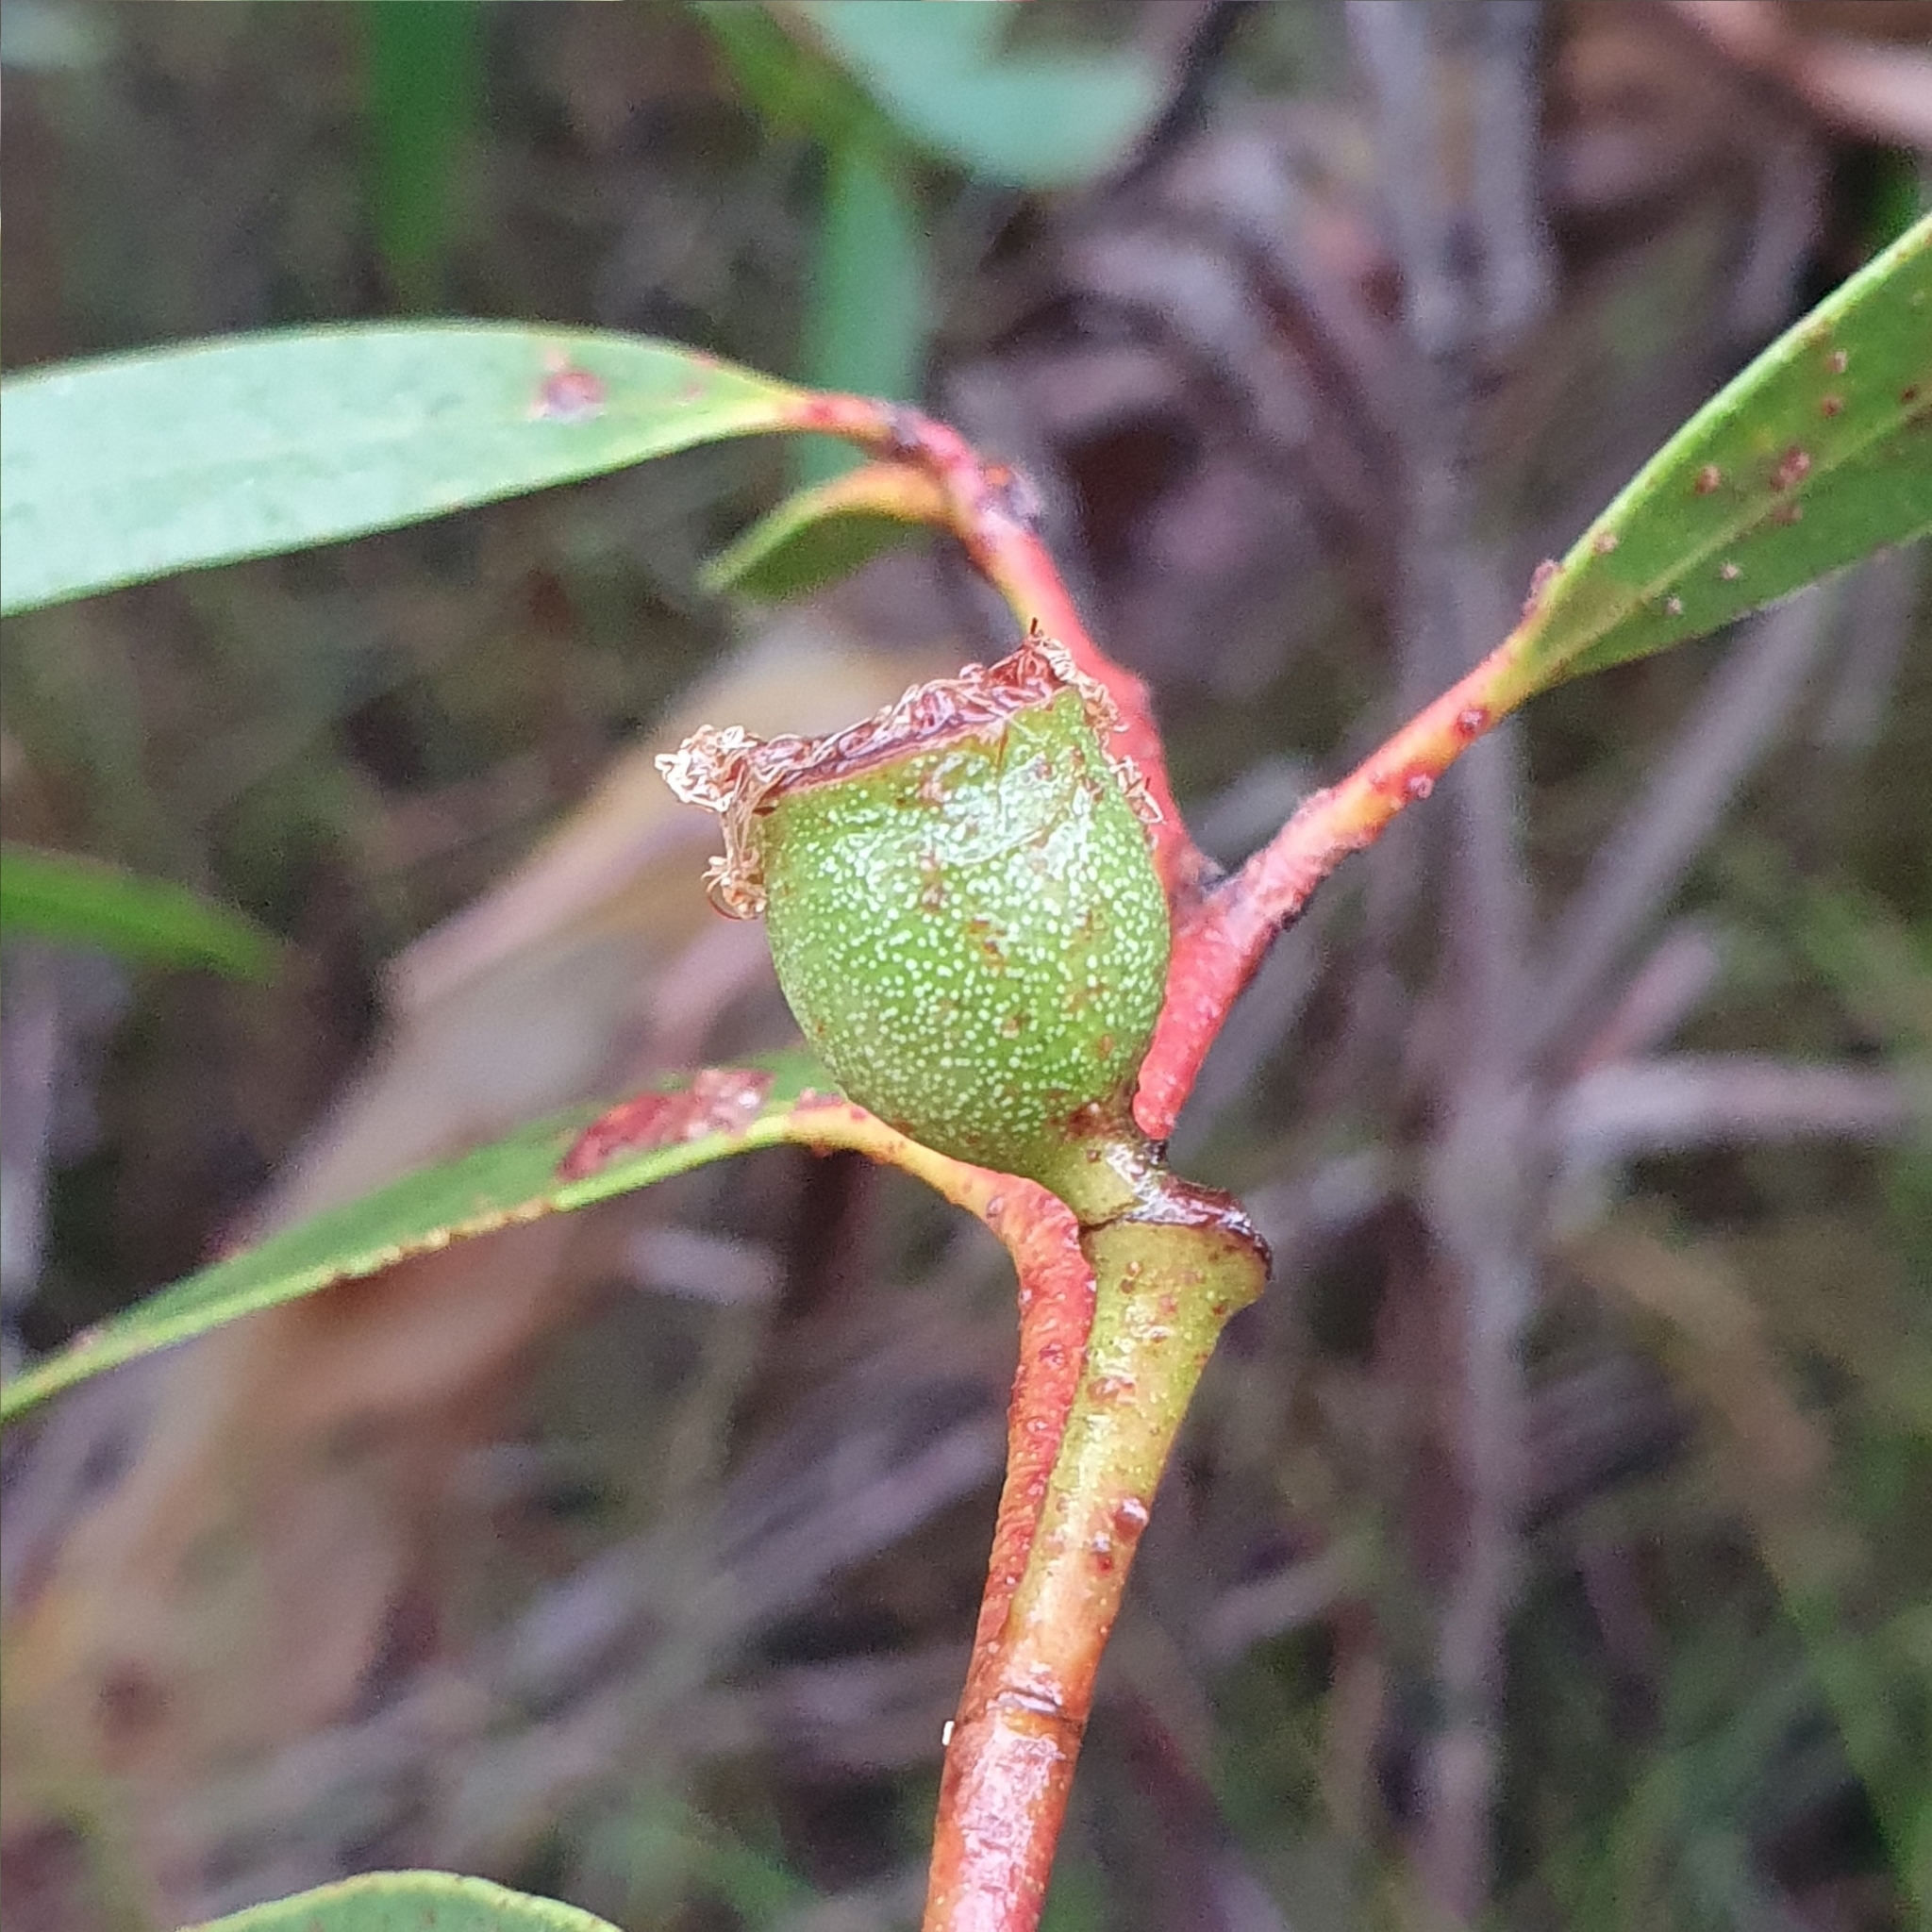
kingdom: Plantae
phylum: Tracheophyta
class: Magnoliopsida
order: Myrtales
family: Myrtaceae
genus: Eucalyptus
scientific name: Eucalyptus burgessiana
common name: Falconbridge mallee-ash
